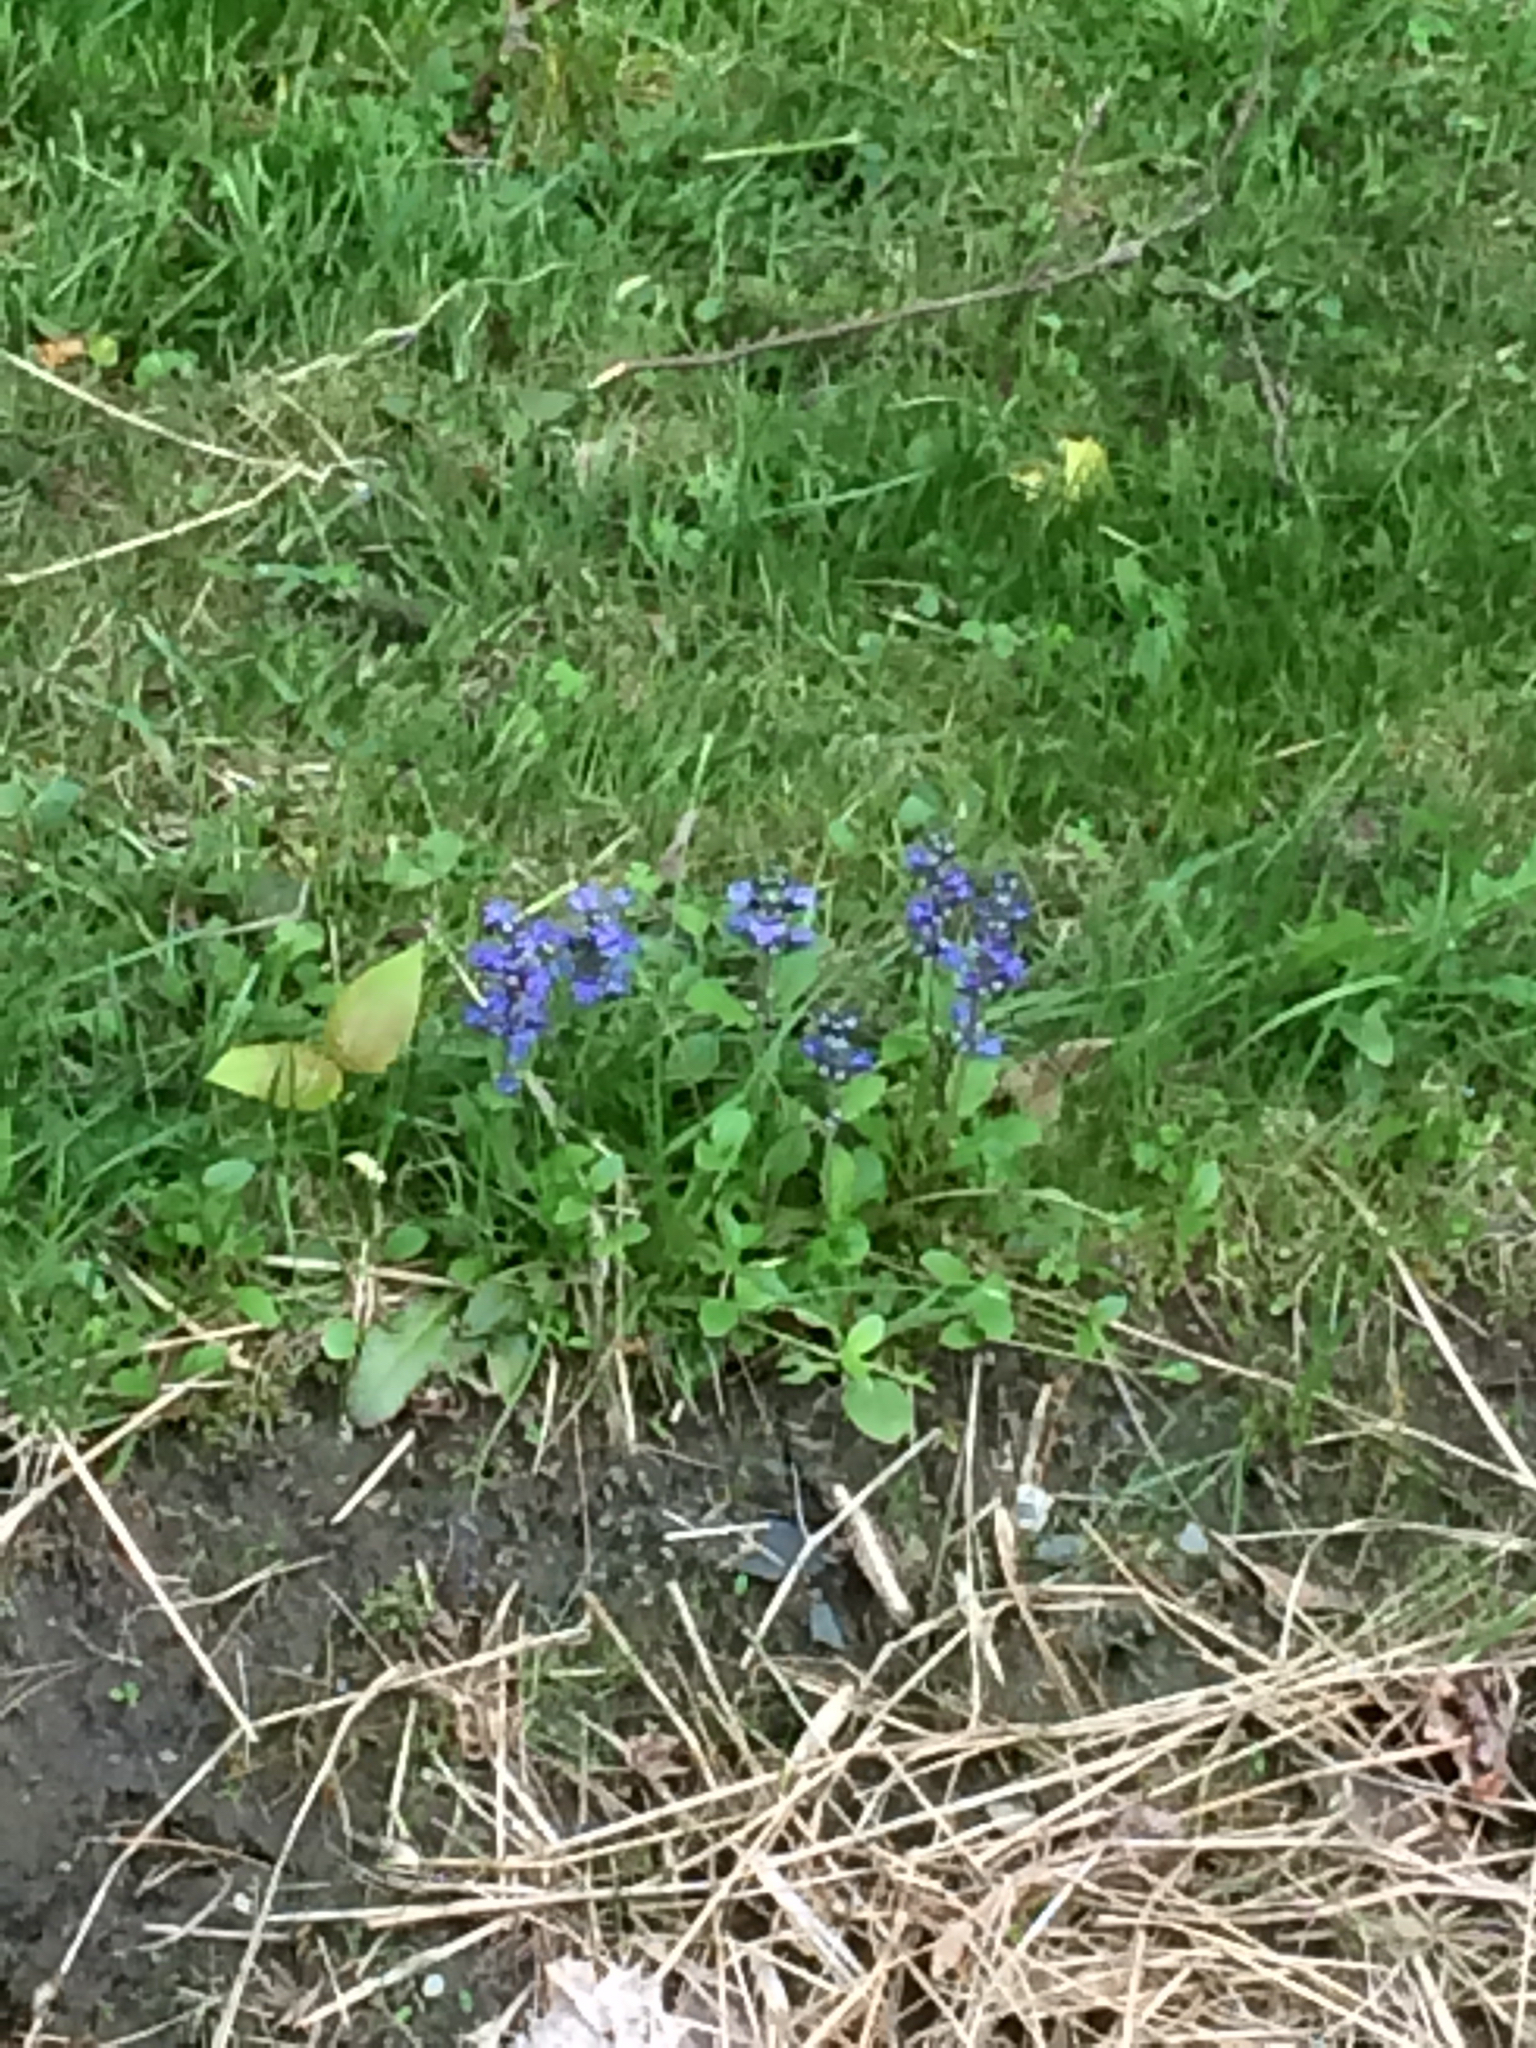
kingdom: Plantae
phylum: Tracheophyta
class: Magnoliopsida
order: Lamiales
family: Lamiaceae
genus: Ajuga
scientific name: Ajuga reptans
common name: Bugle
